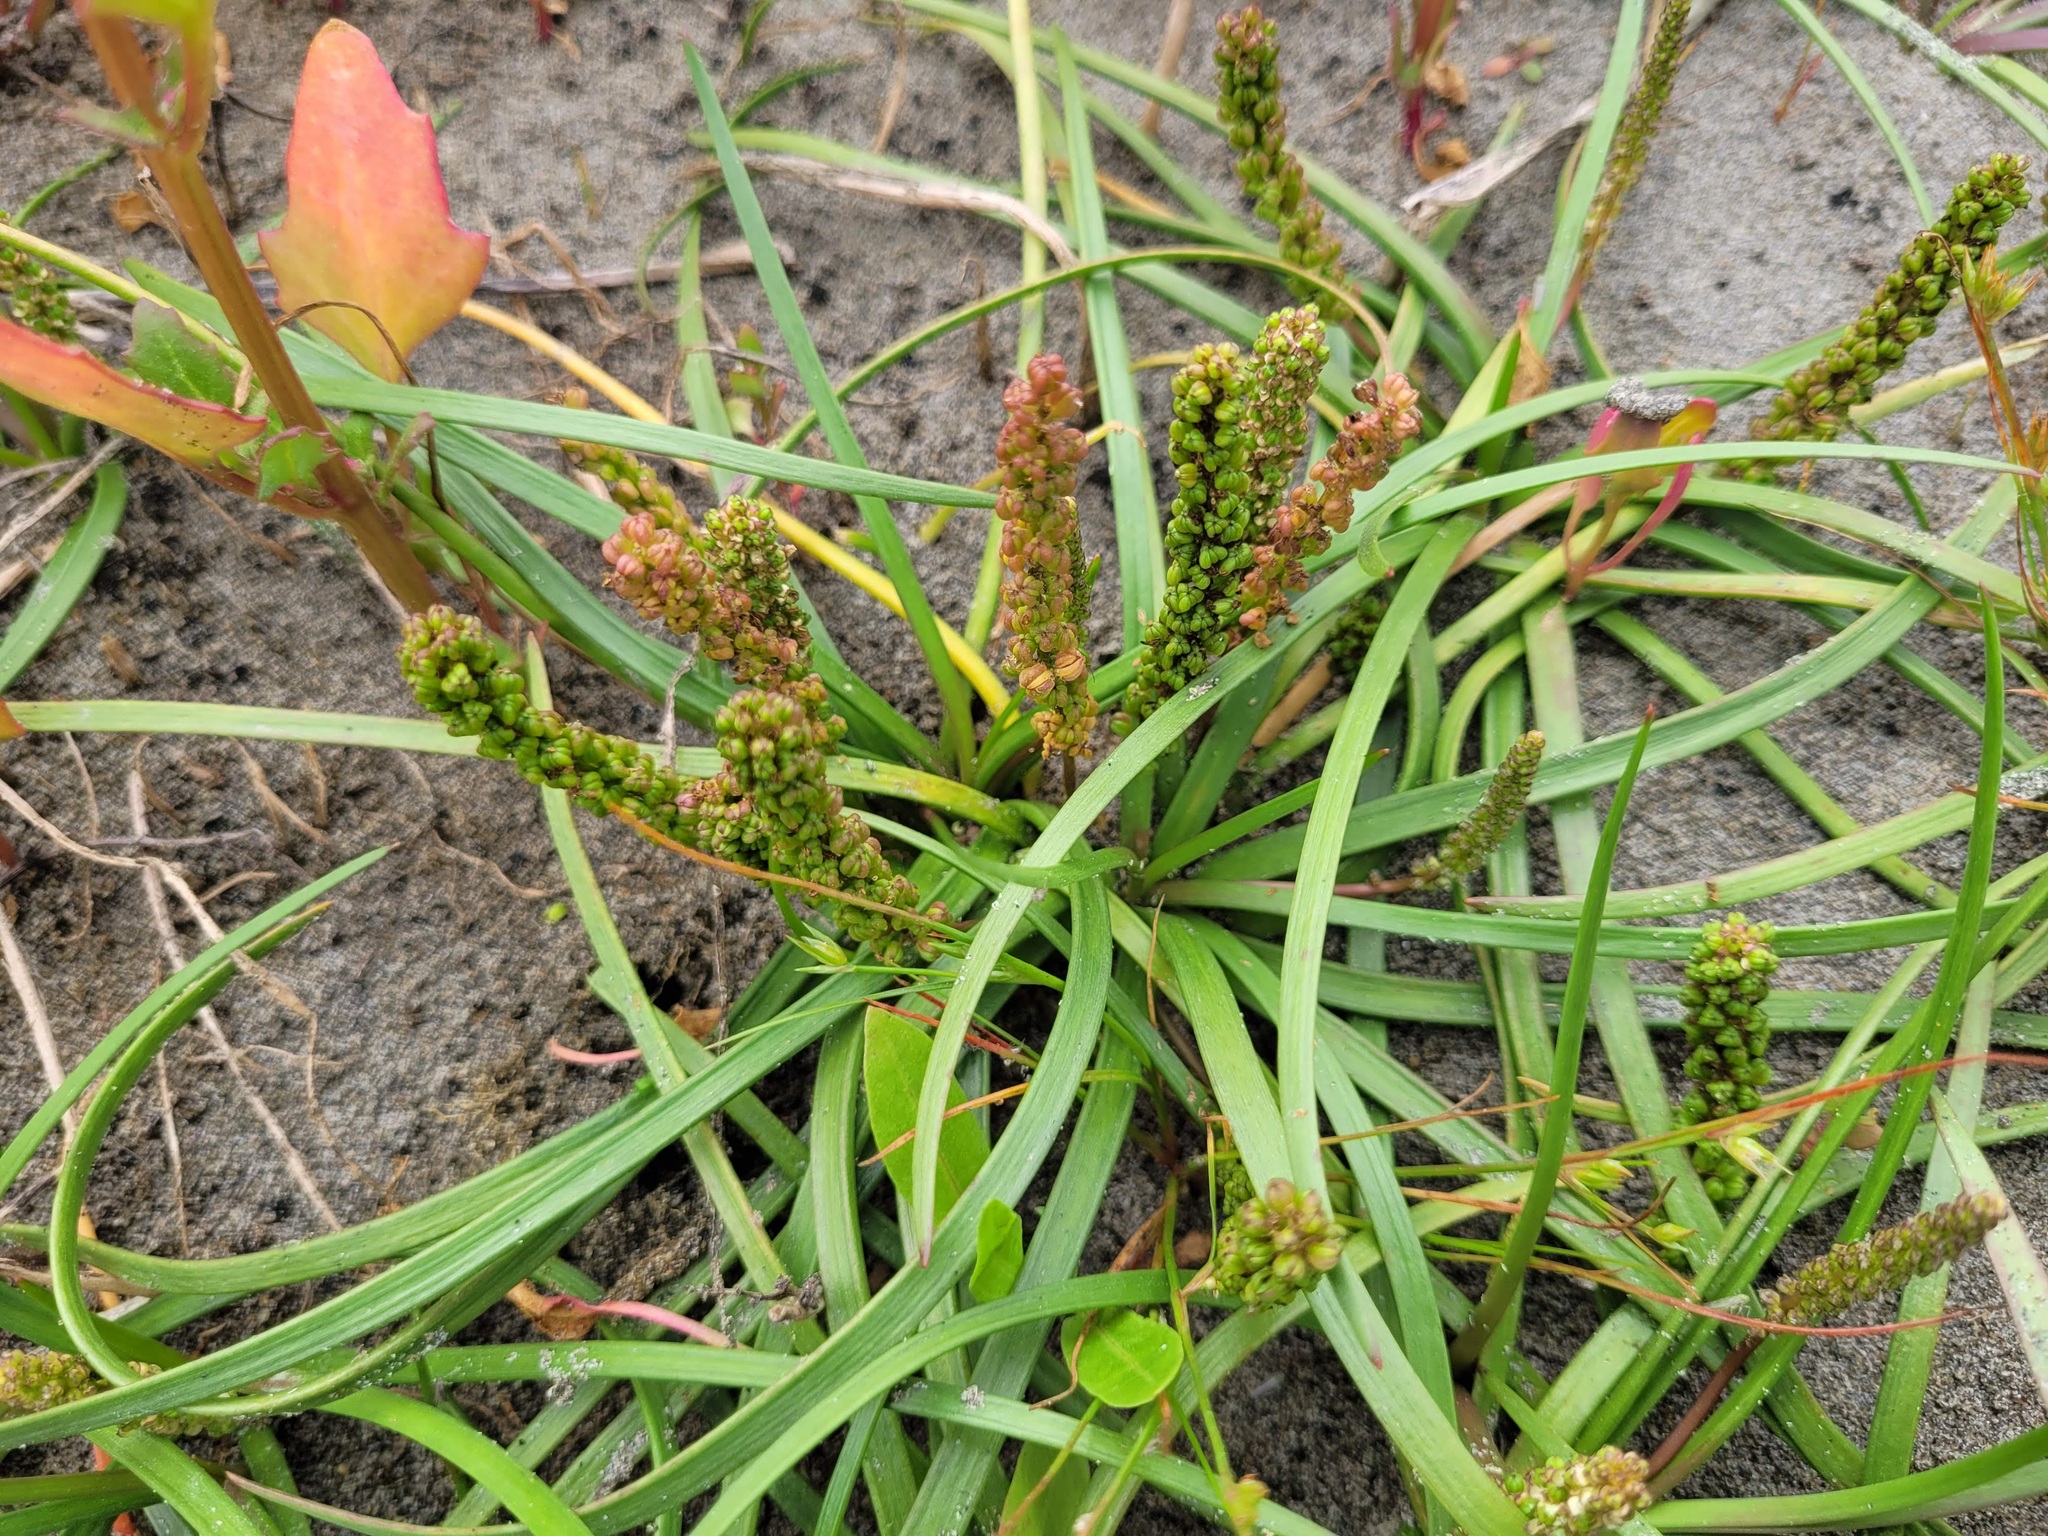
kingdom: Plantae
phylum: Tracheophyta
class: Liliopsida
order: Alismatales
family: Juncaginaceae
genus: Triglochin
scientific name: Triglochin striata
